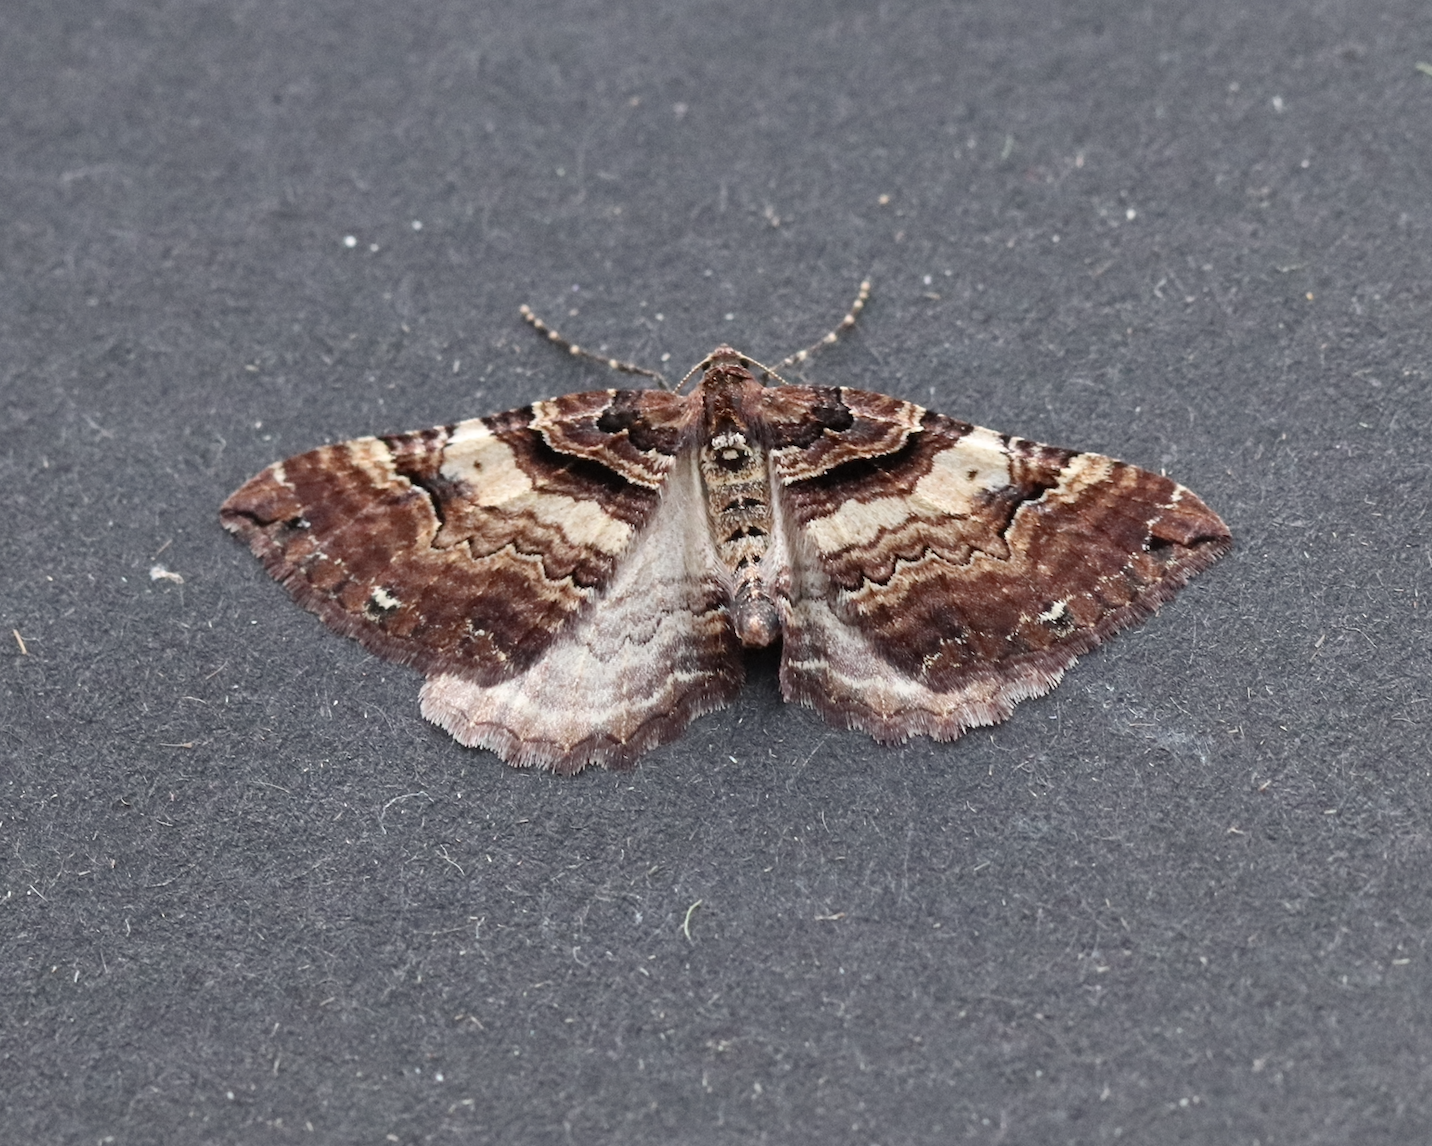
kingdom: Animalia
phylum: Arthropoda
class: Insecta
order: Lepidoptera
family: Geometridae
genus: Anticlea
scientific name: Anticlea badiata
